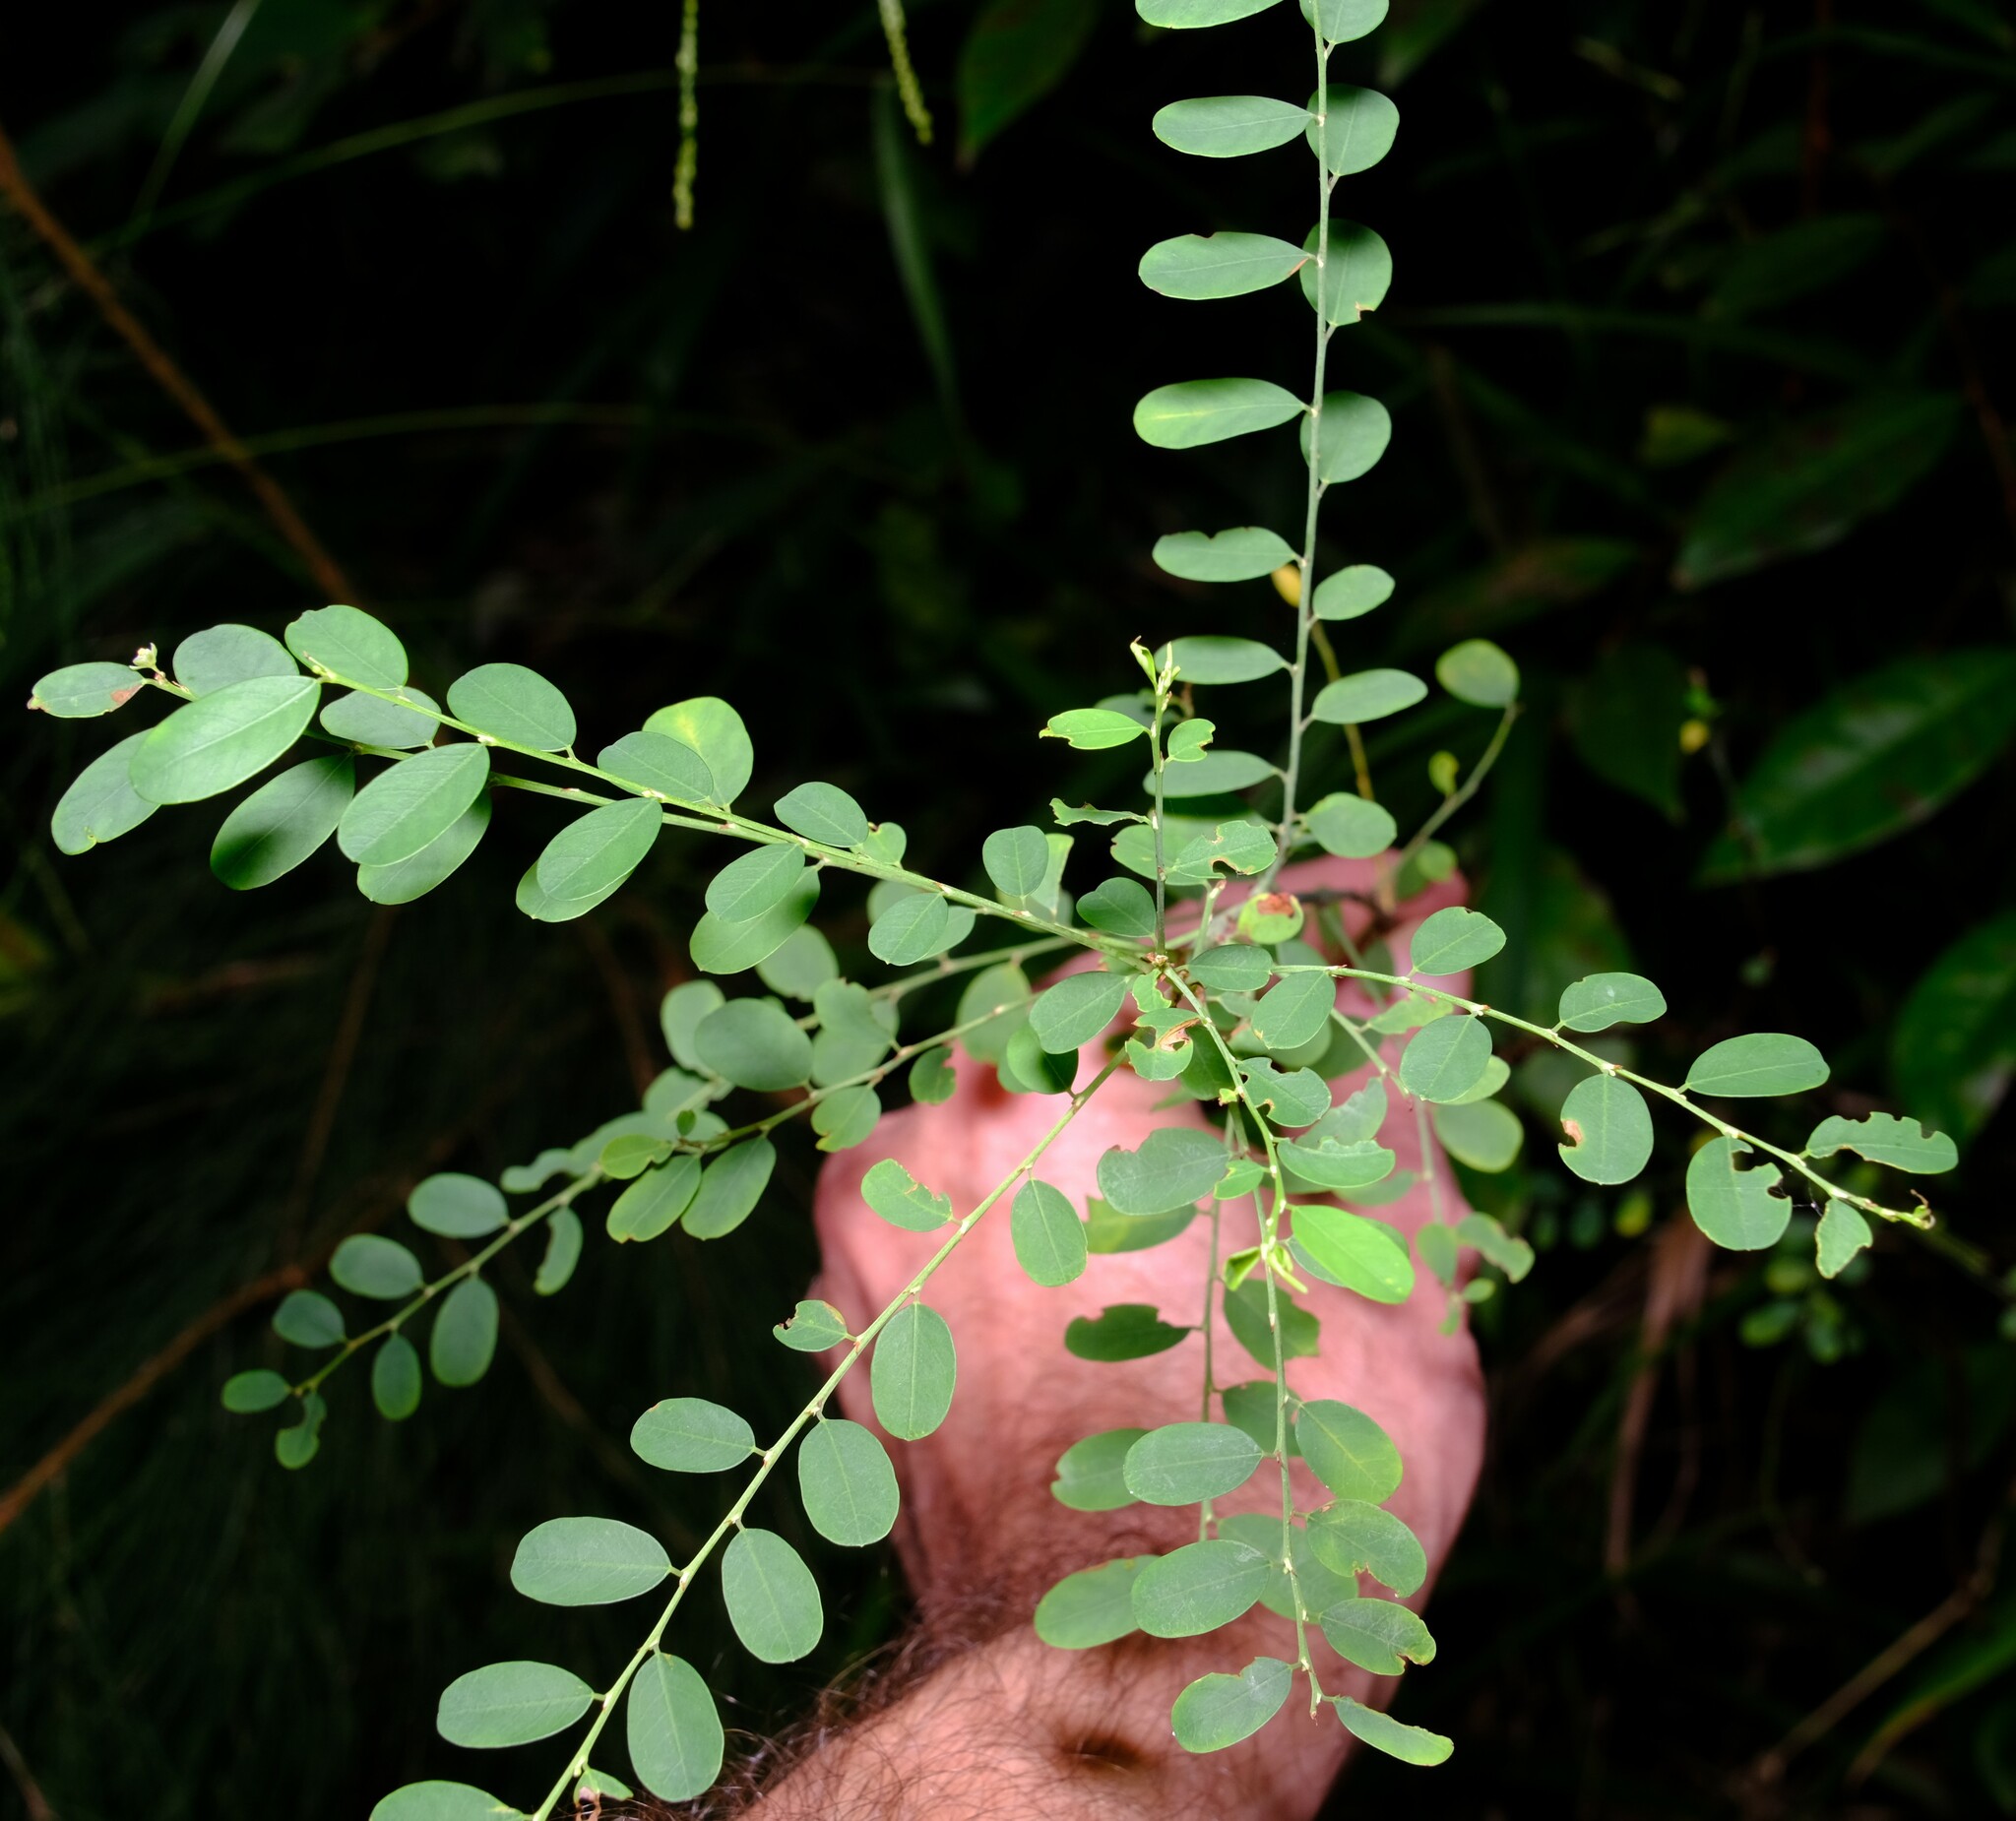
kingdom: Plantae
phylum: Tracheophyta
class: Magnoliopsida
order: Malpighiales
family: Phyllanthaceae
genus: Phyllanthus
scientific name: Phyllanthus gunnii
